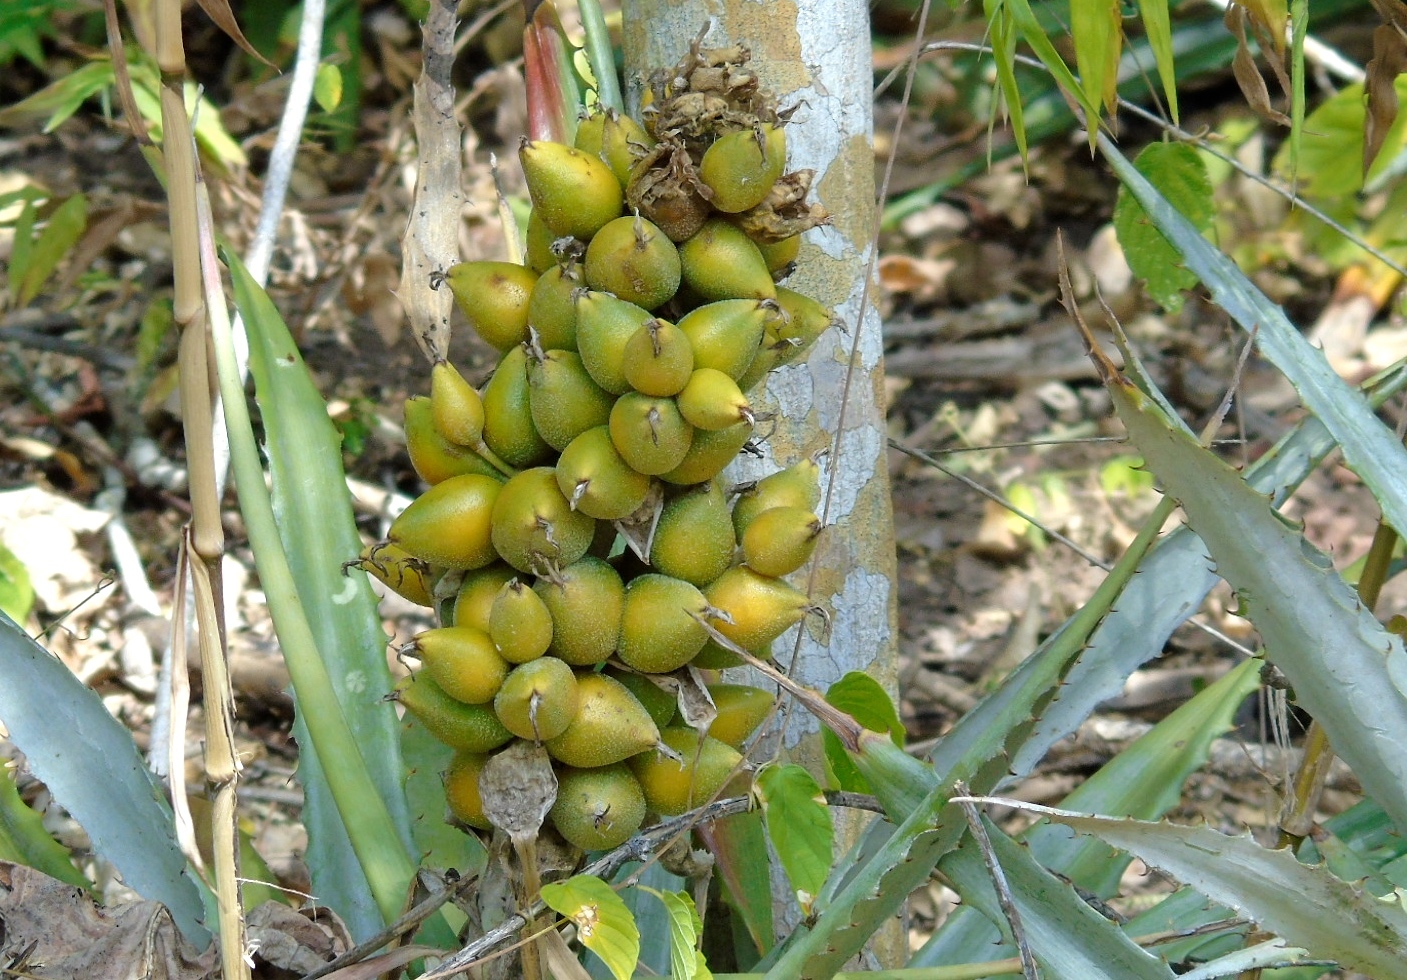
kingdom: Plantae
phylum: Tracheophyta
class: Liliopsida
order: Poales
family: Bromeliaceae
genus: Bromelia
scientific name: Bromelia pinguin
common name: Pinguin
